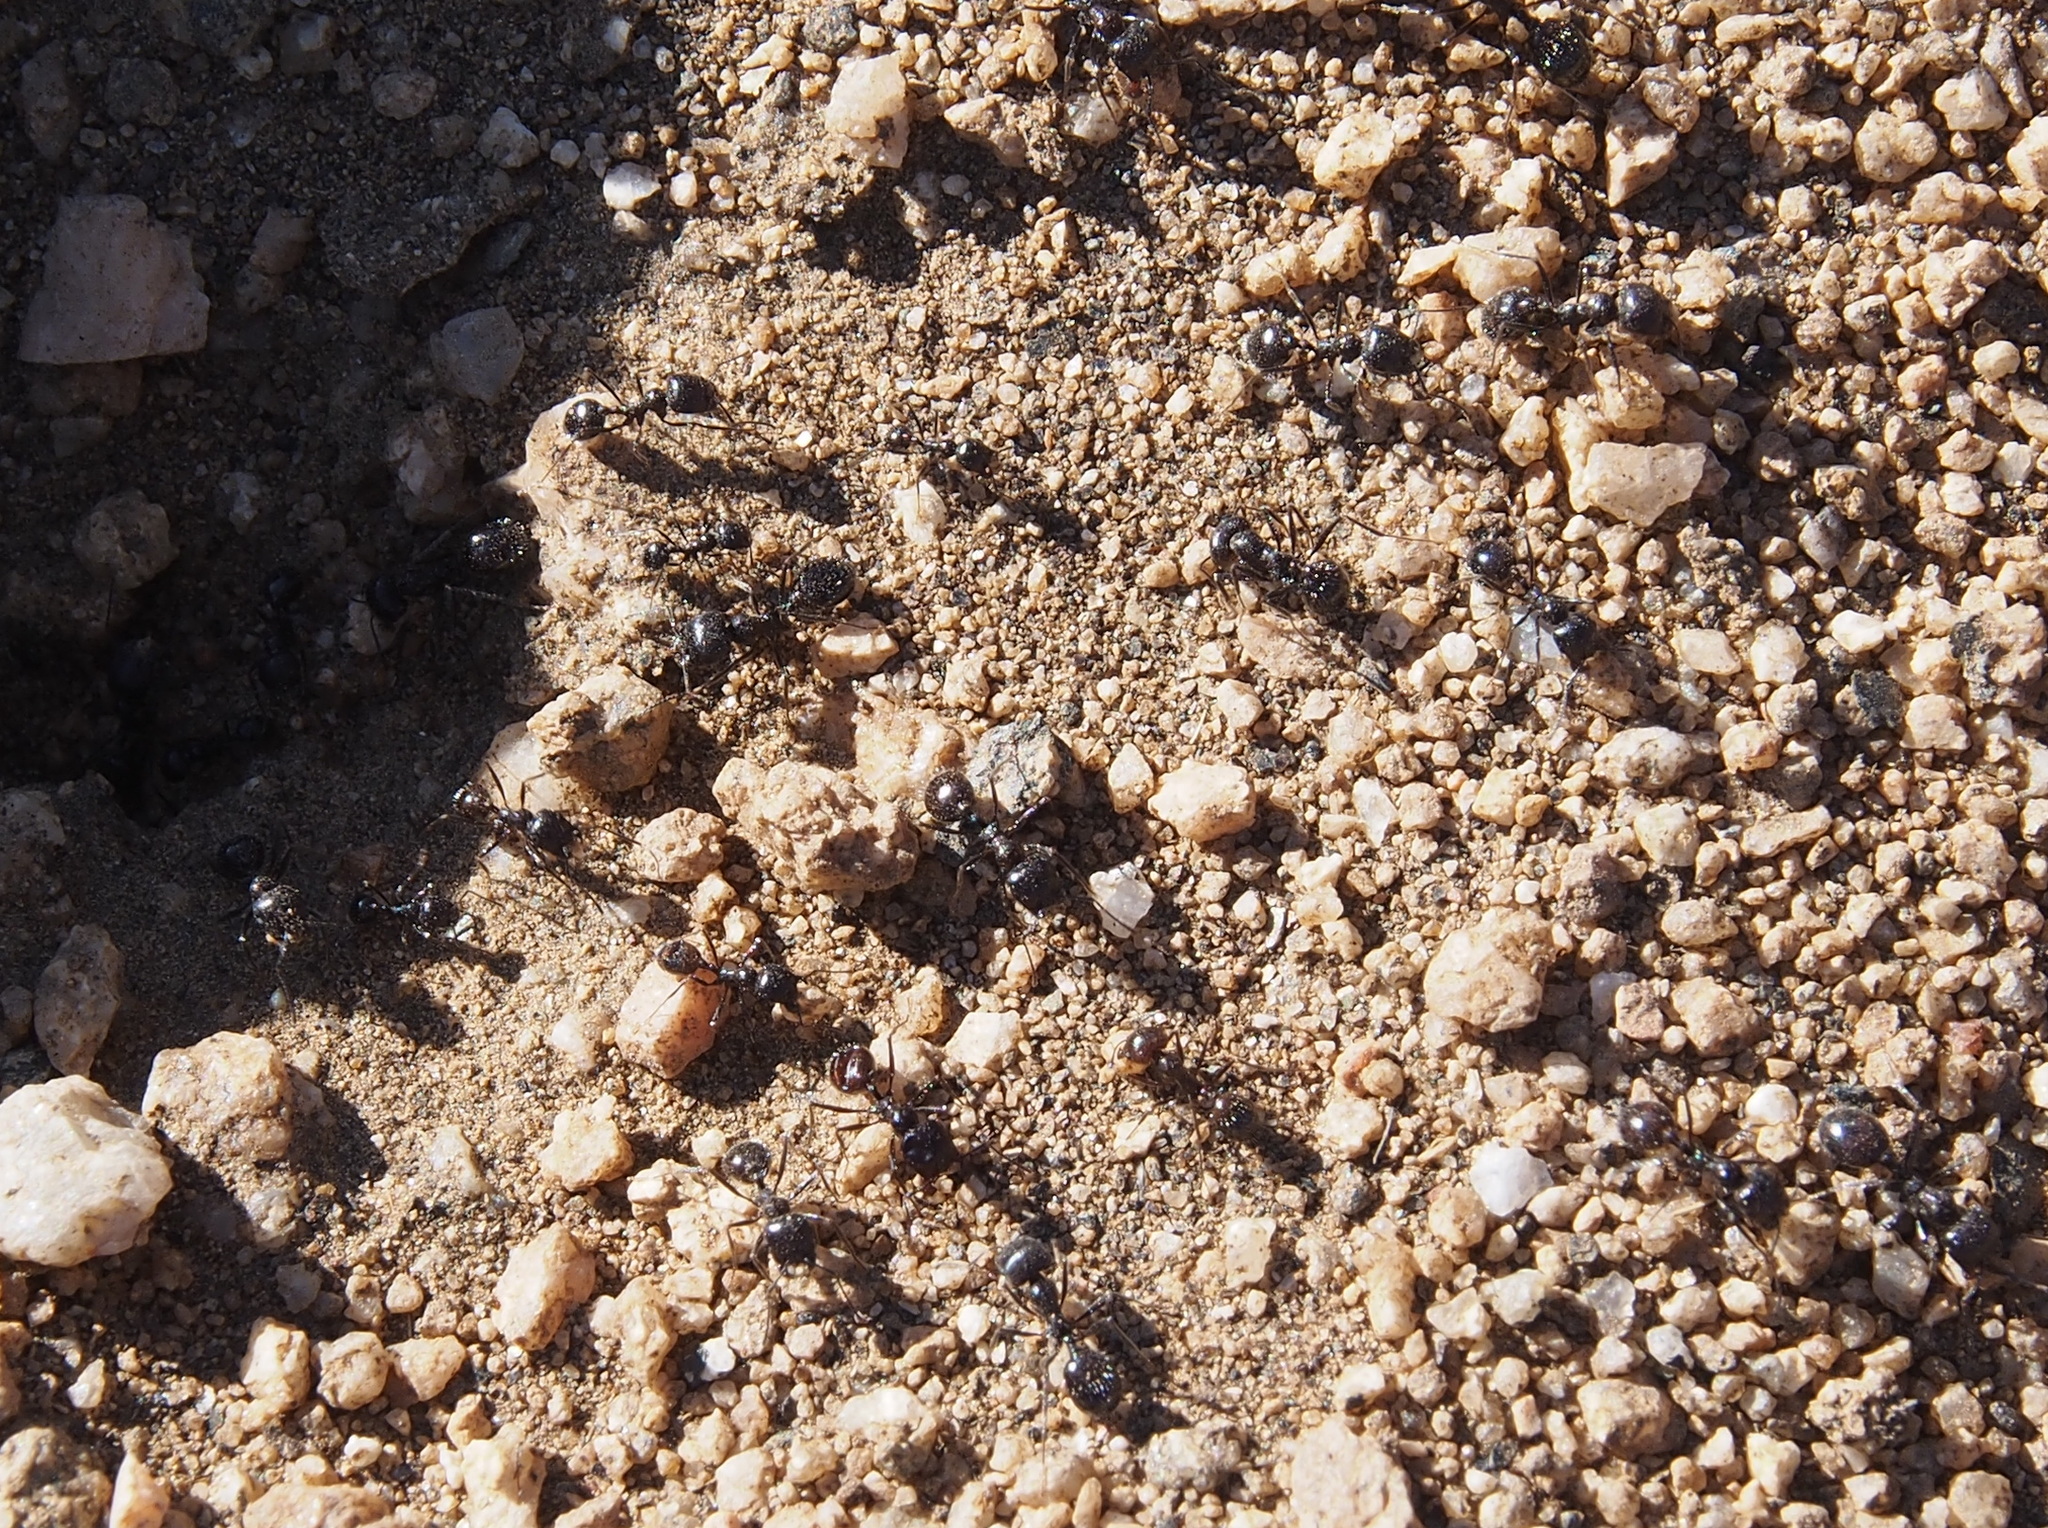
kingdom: Animalia
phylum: Arthropoda
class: Insecta
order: Hymenoptera
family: Formicidae
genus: Messor
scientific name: Messor pergandei
